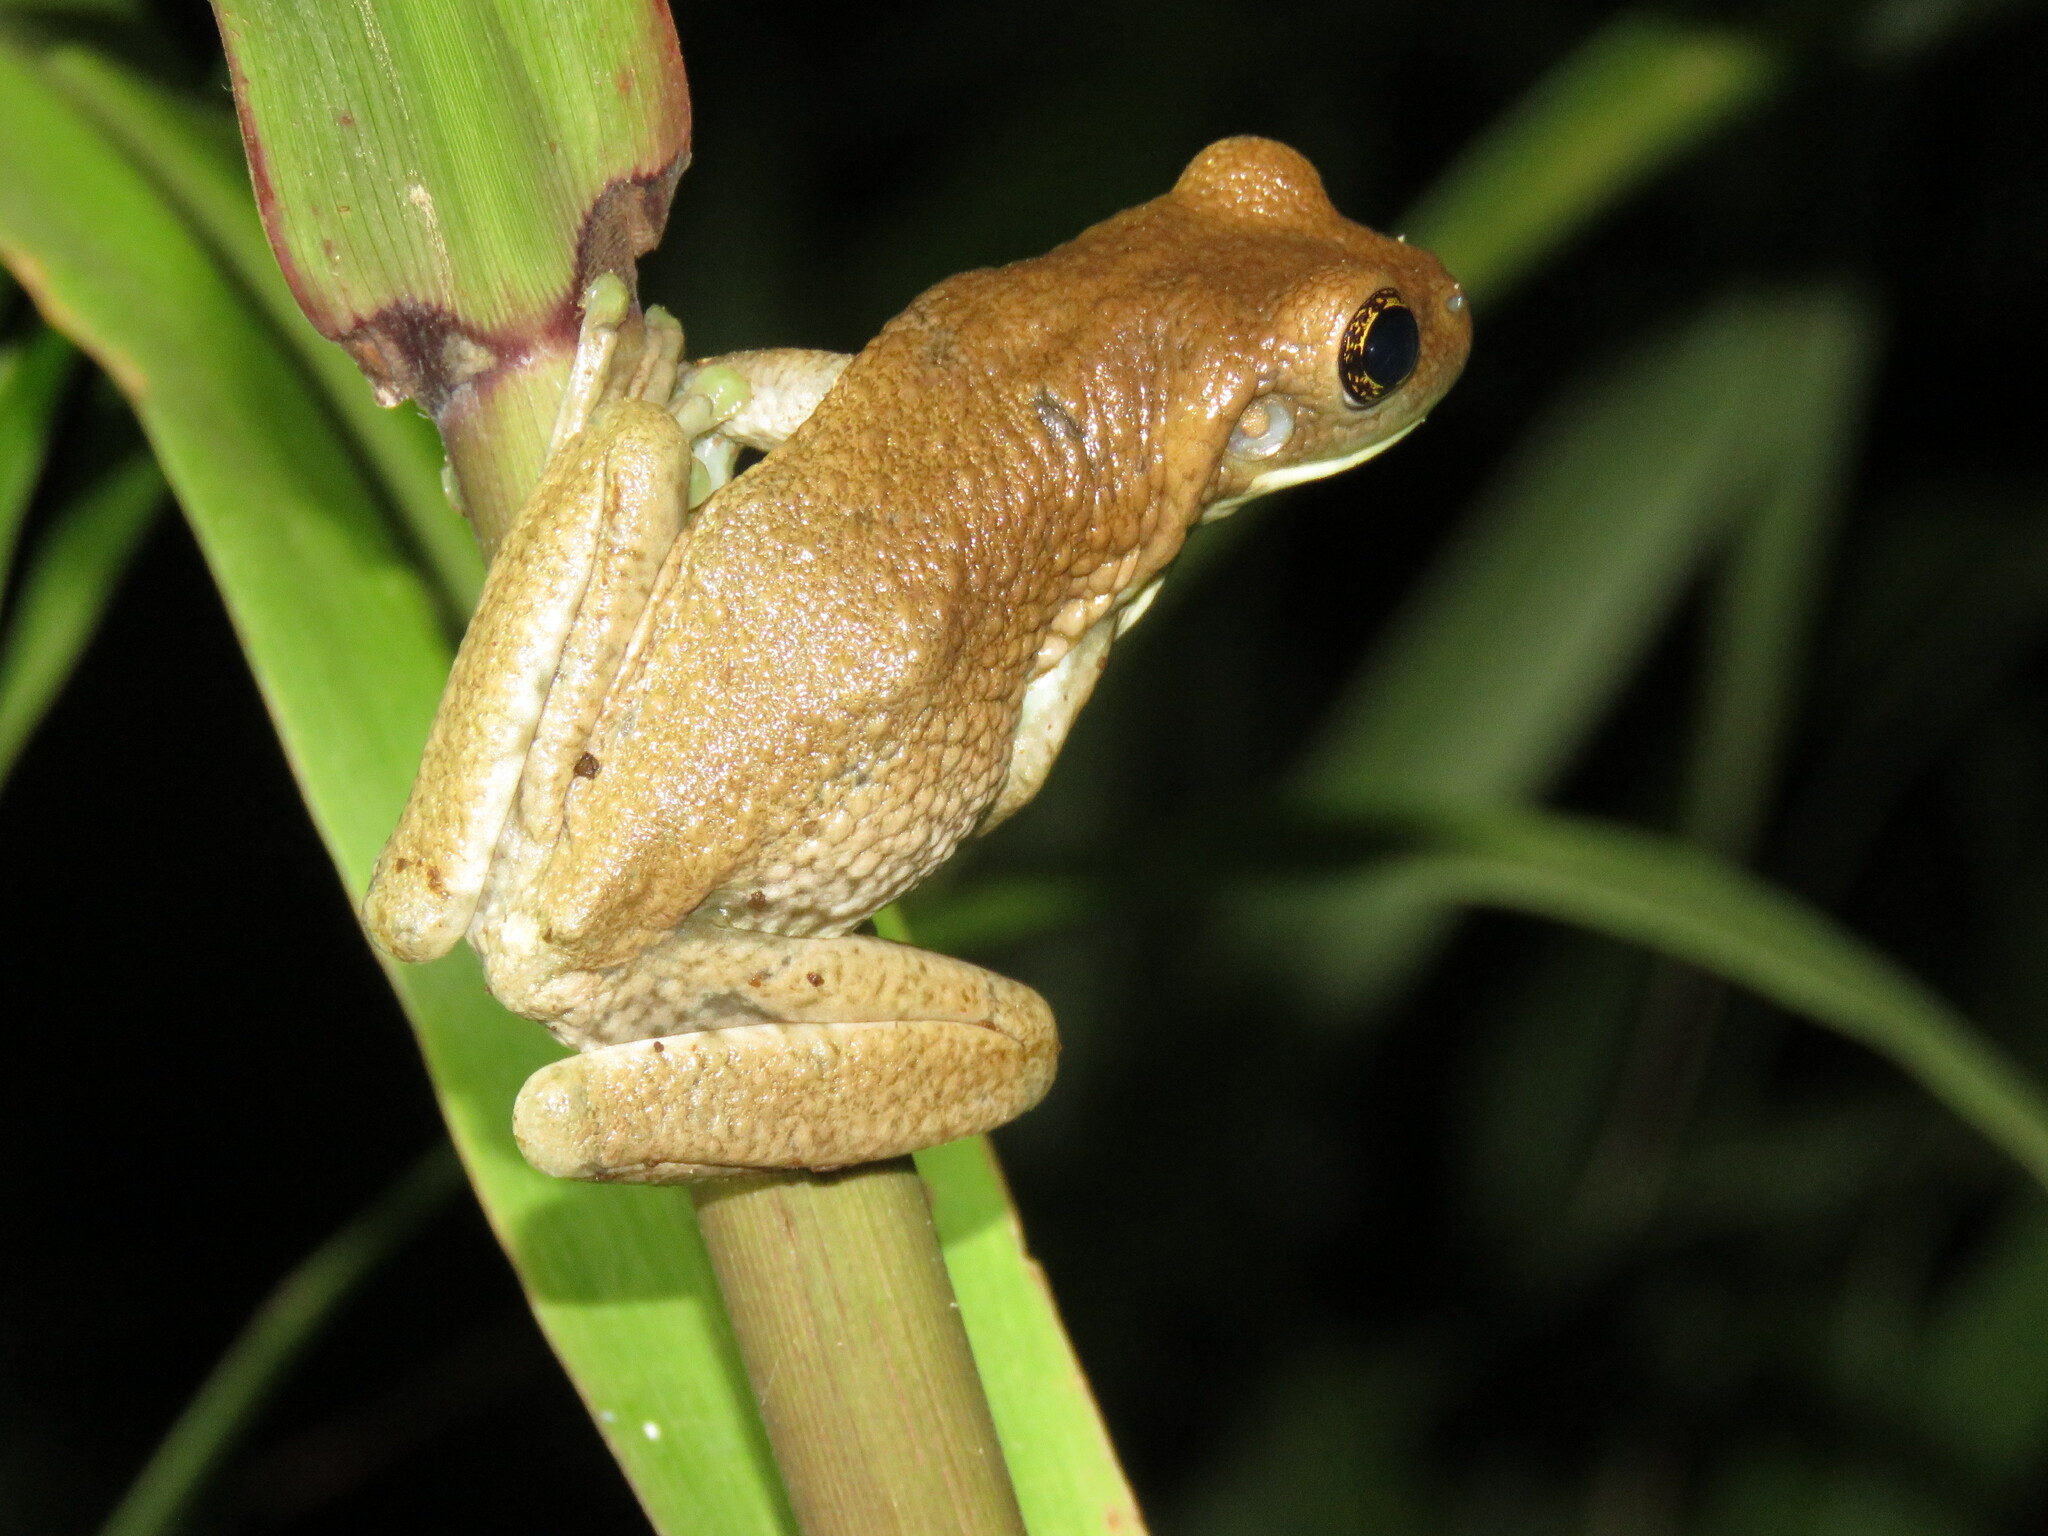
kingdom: Animalia
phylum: Chordata
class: Amphibia
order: Anura
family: Hylidae
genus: Trachycephalus
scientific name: Trachycephalus typhonius
